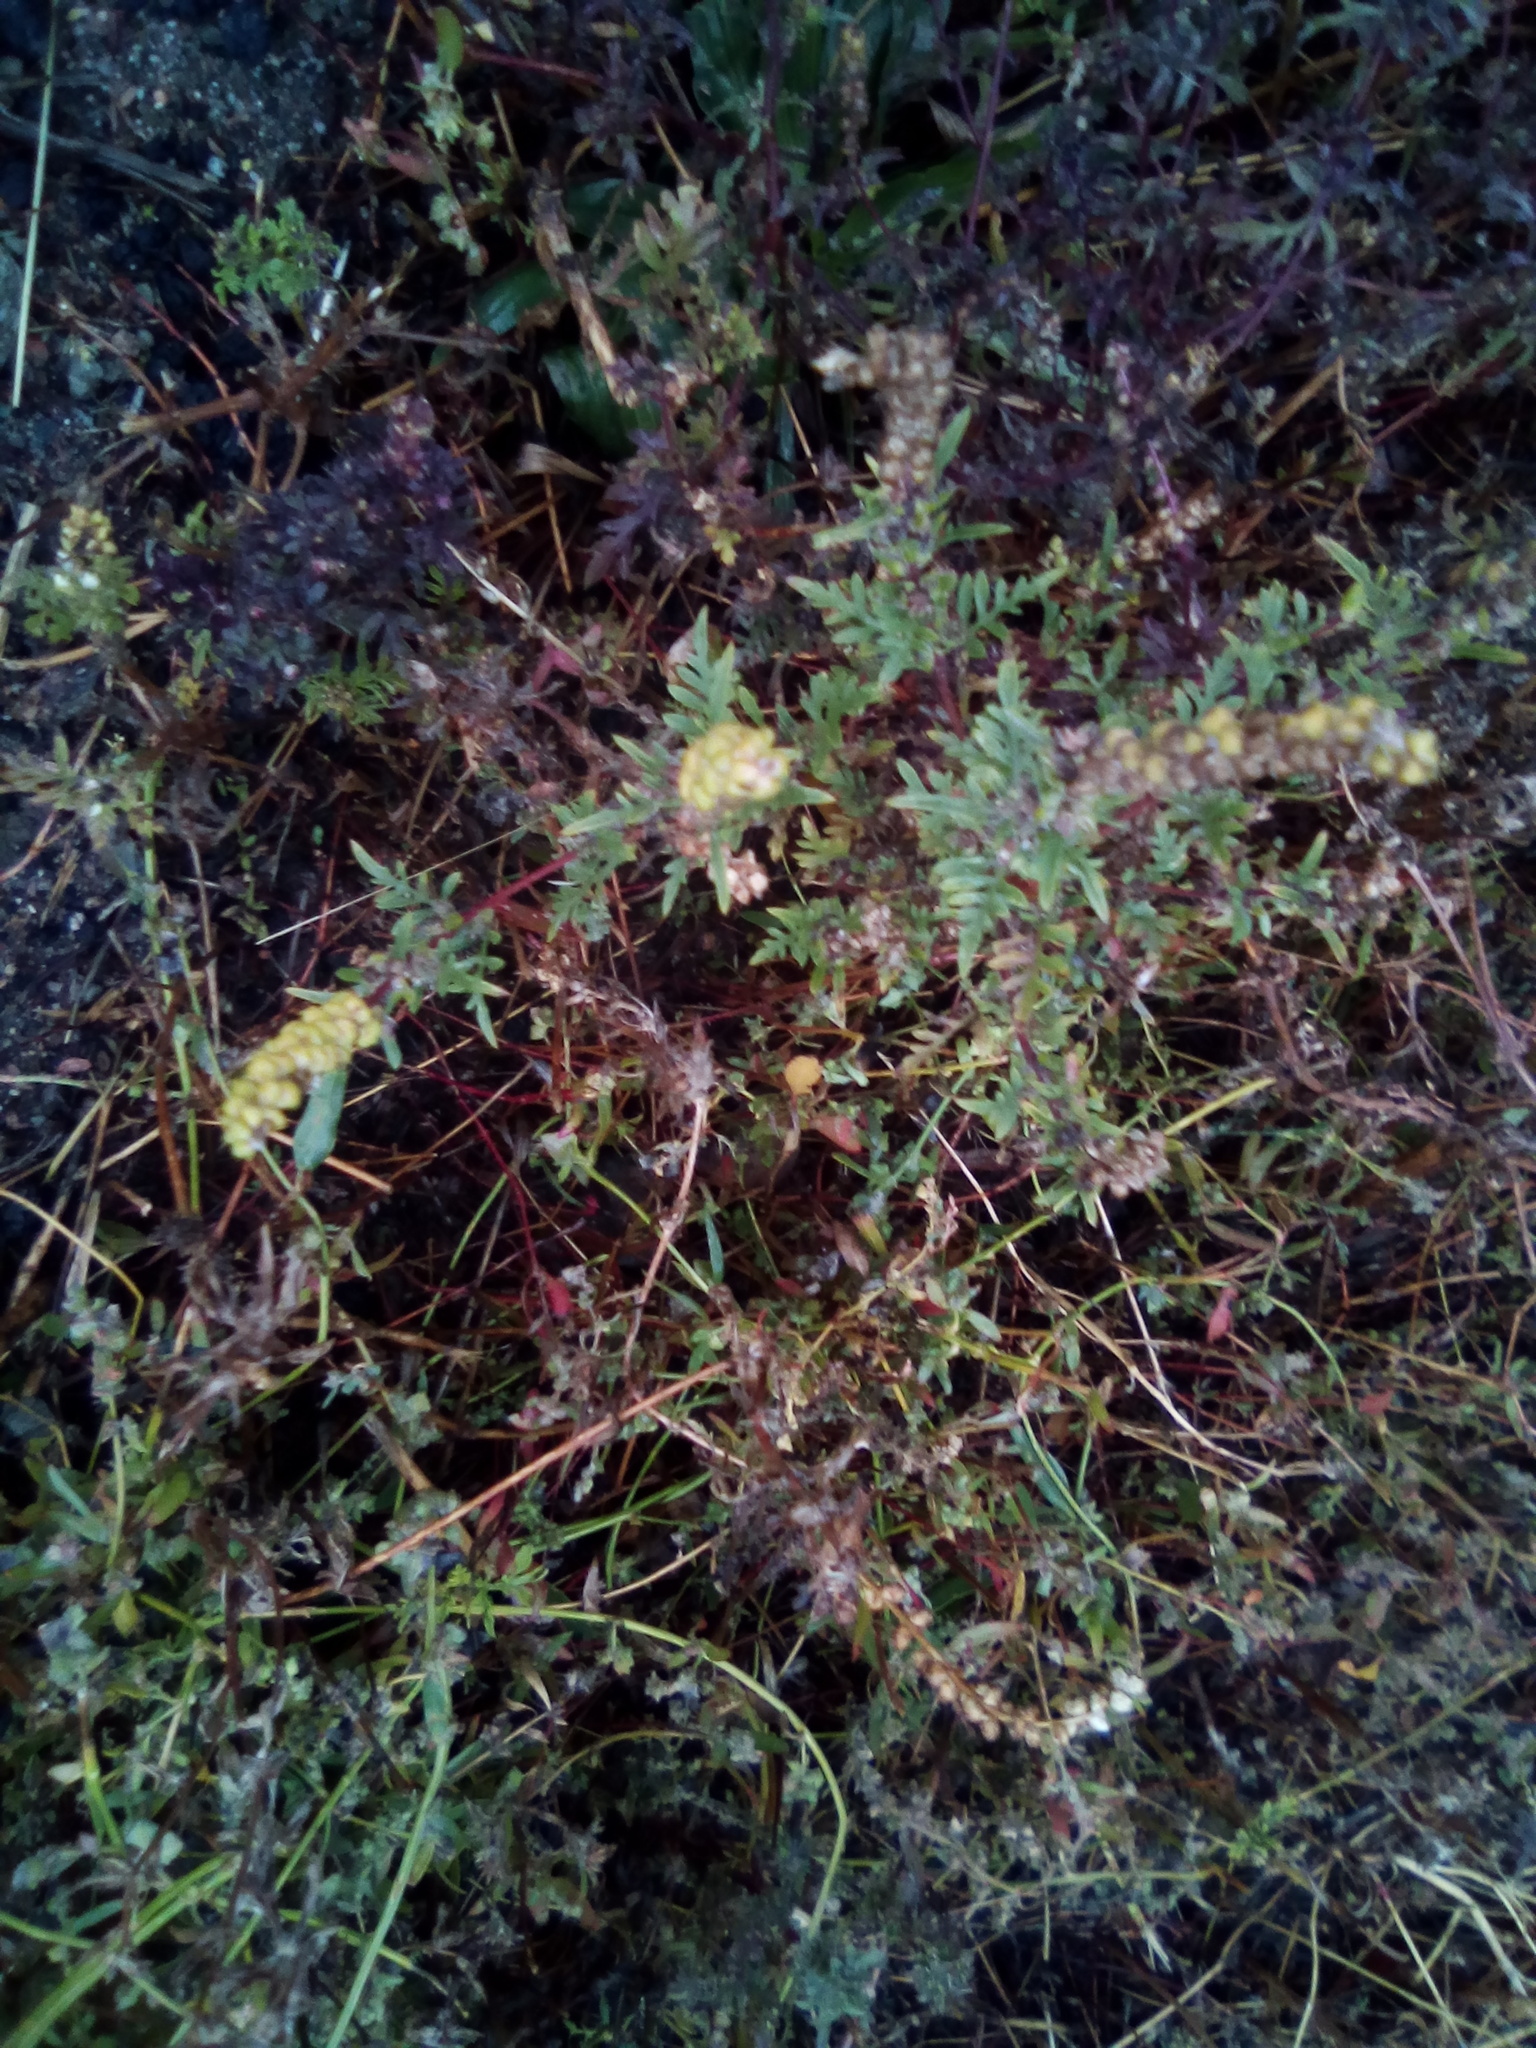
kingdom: Plantae
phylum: Tracheophyta
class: Magnoliopsida
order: Asterales
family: Asteraceae
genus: Ambrosia
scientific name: Ambrosia artemisiifolia
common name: Annual ragweed
